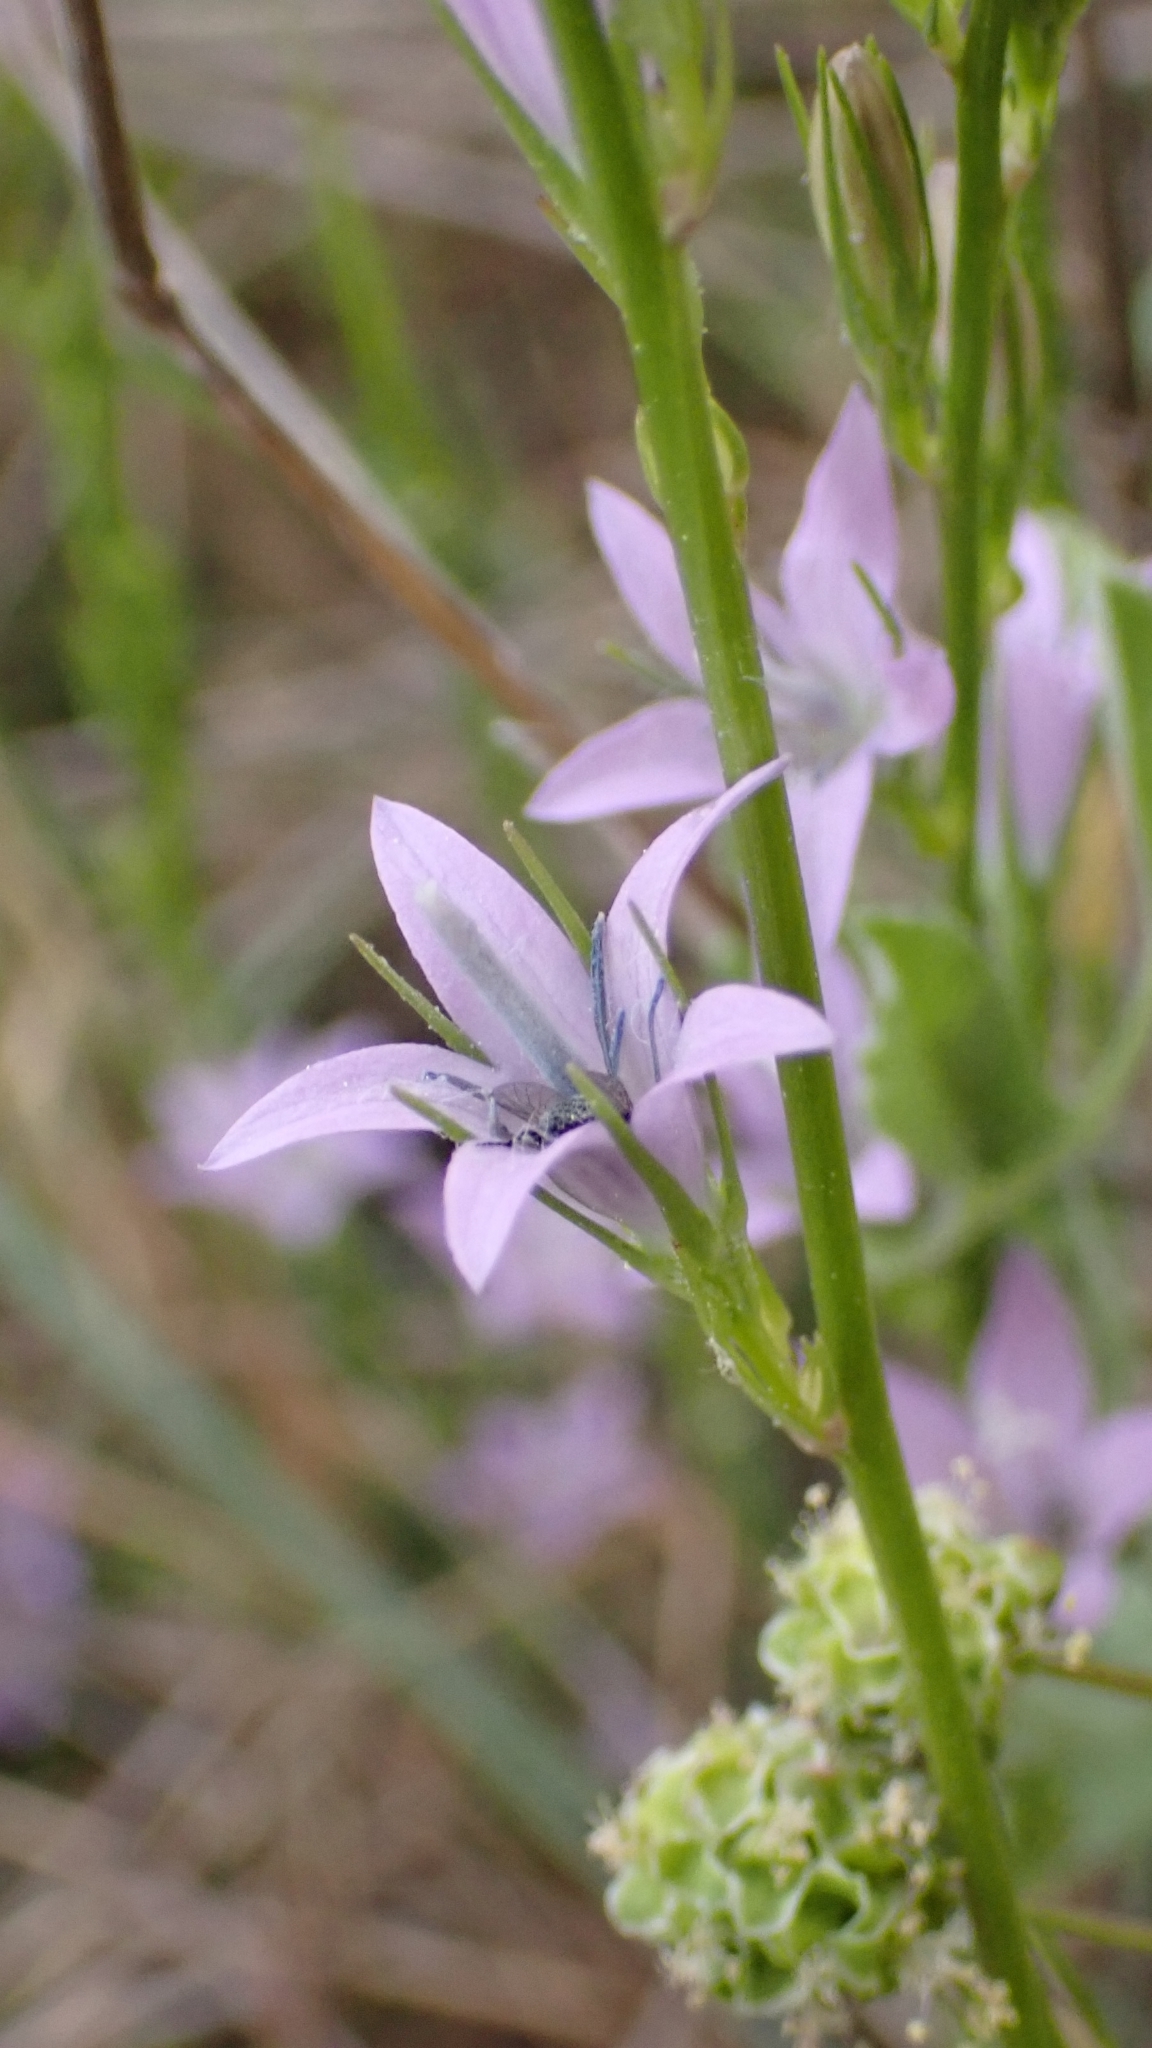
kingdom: Plantae
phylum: Tracheophyta
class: Magnoliopsida
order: Asterales
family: Campanulaceae
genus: Campanula
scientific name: Campanula rapunculus
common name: Rampion bellflower
